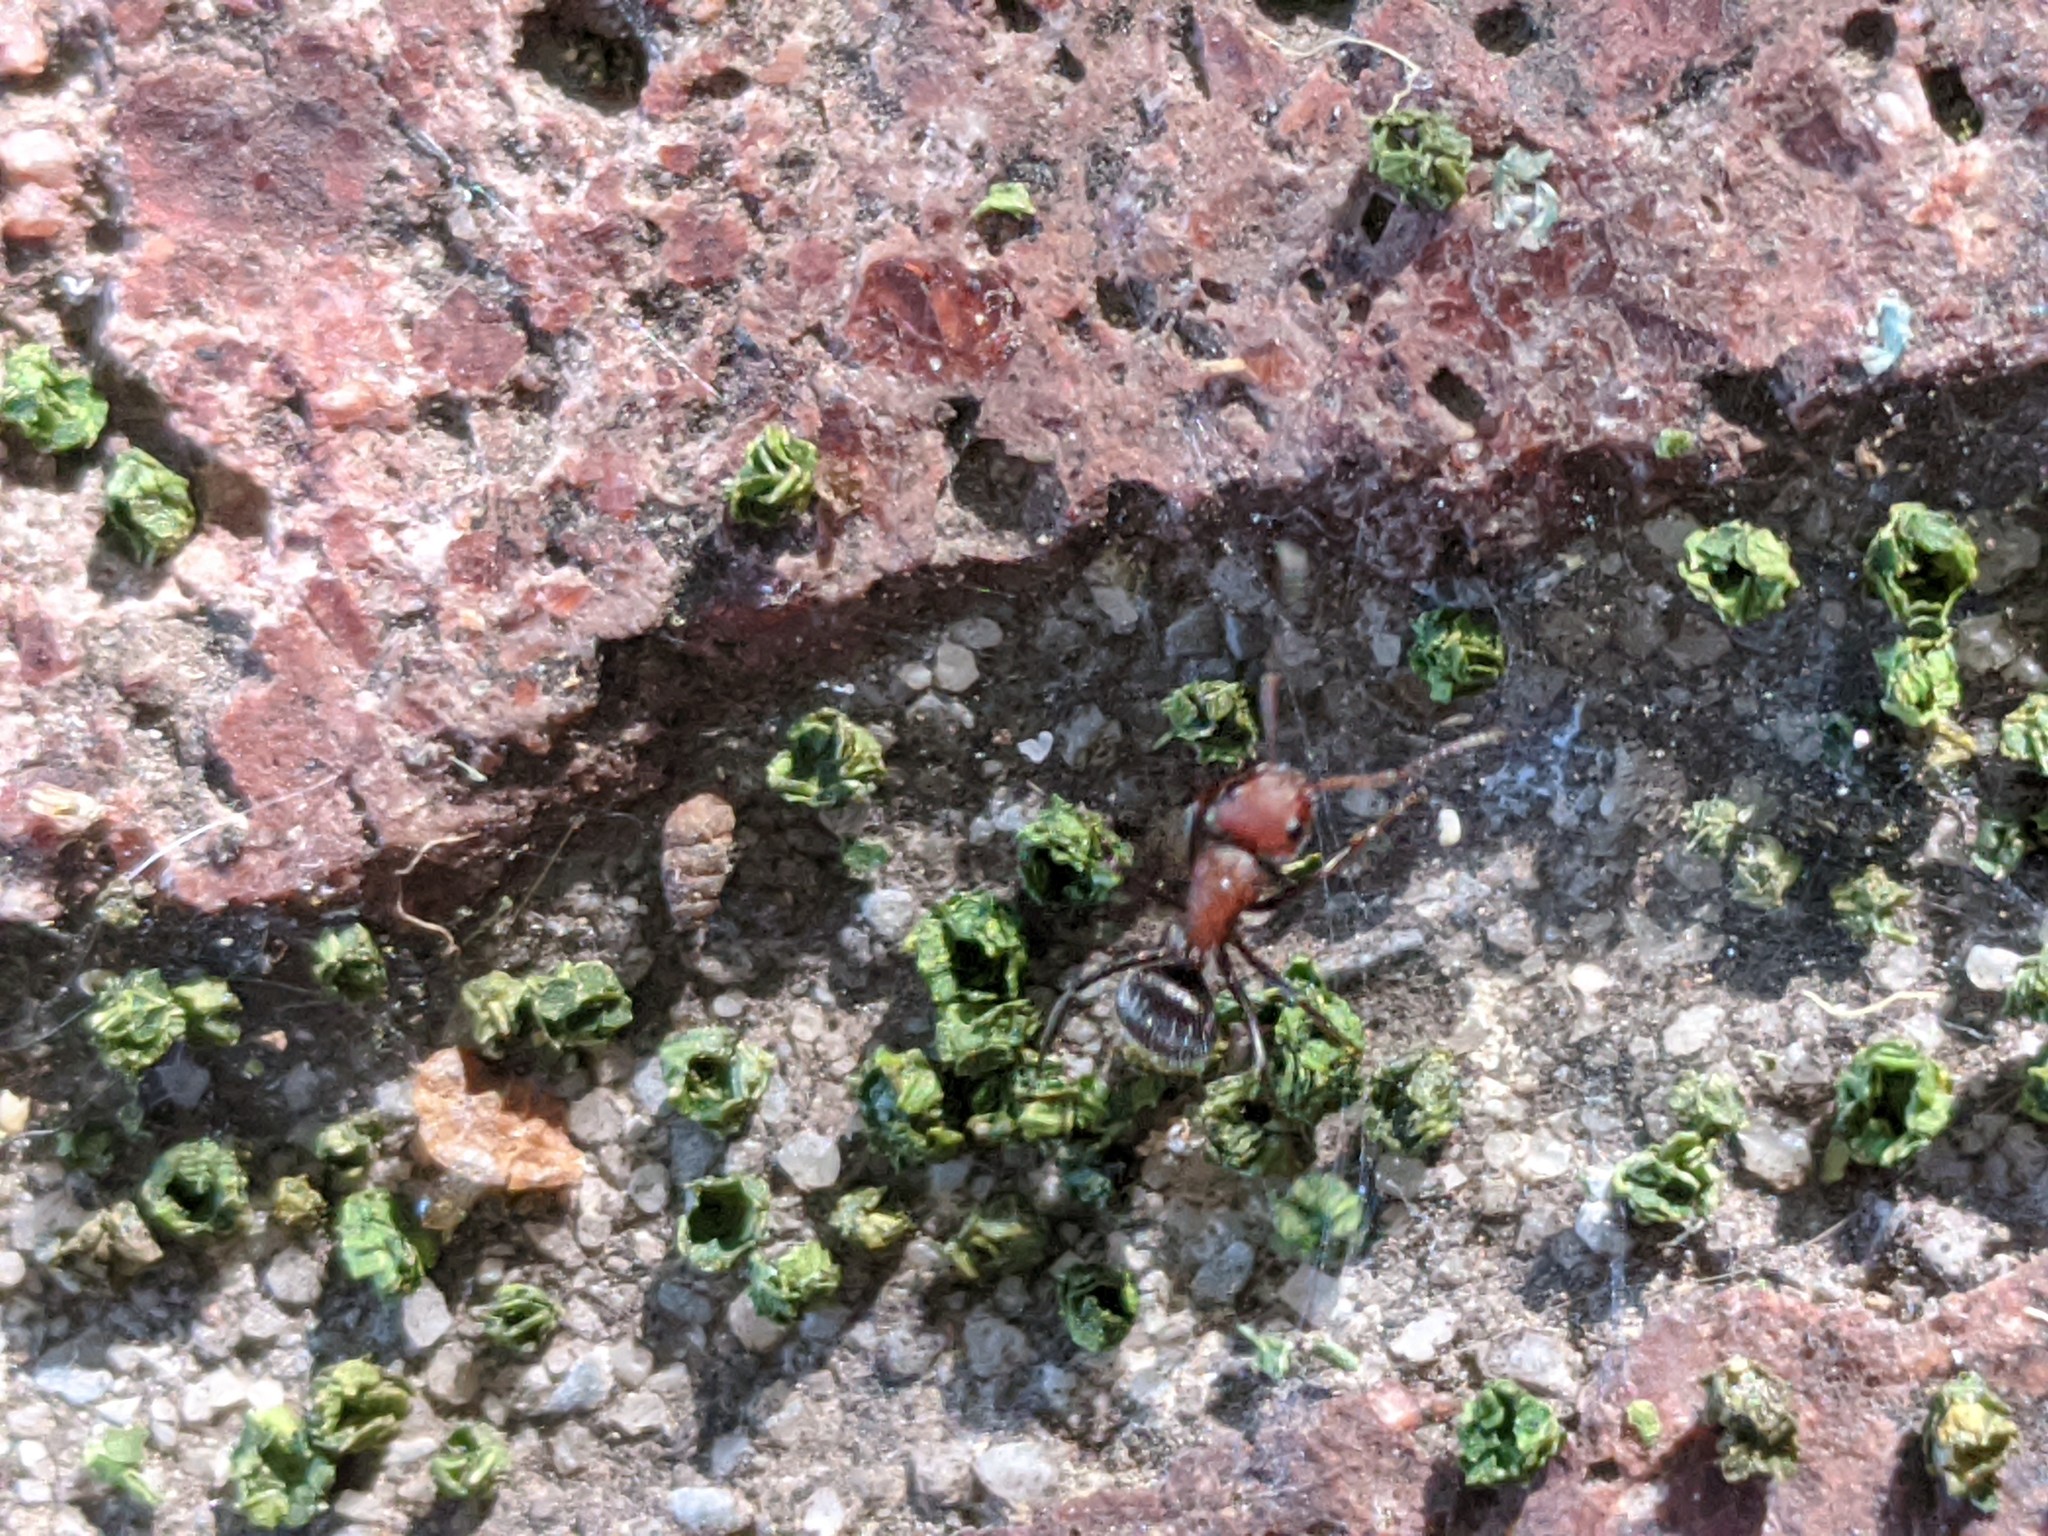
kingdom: Animalia
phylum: Arthropoda
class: Insecta
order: Hymenoptera
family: Formicidae
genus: Camponotus
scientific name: Camponotus planatus
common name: Compact carpenter ant
